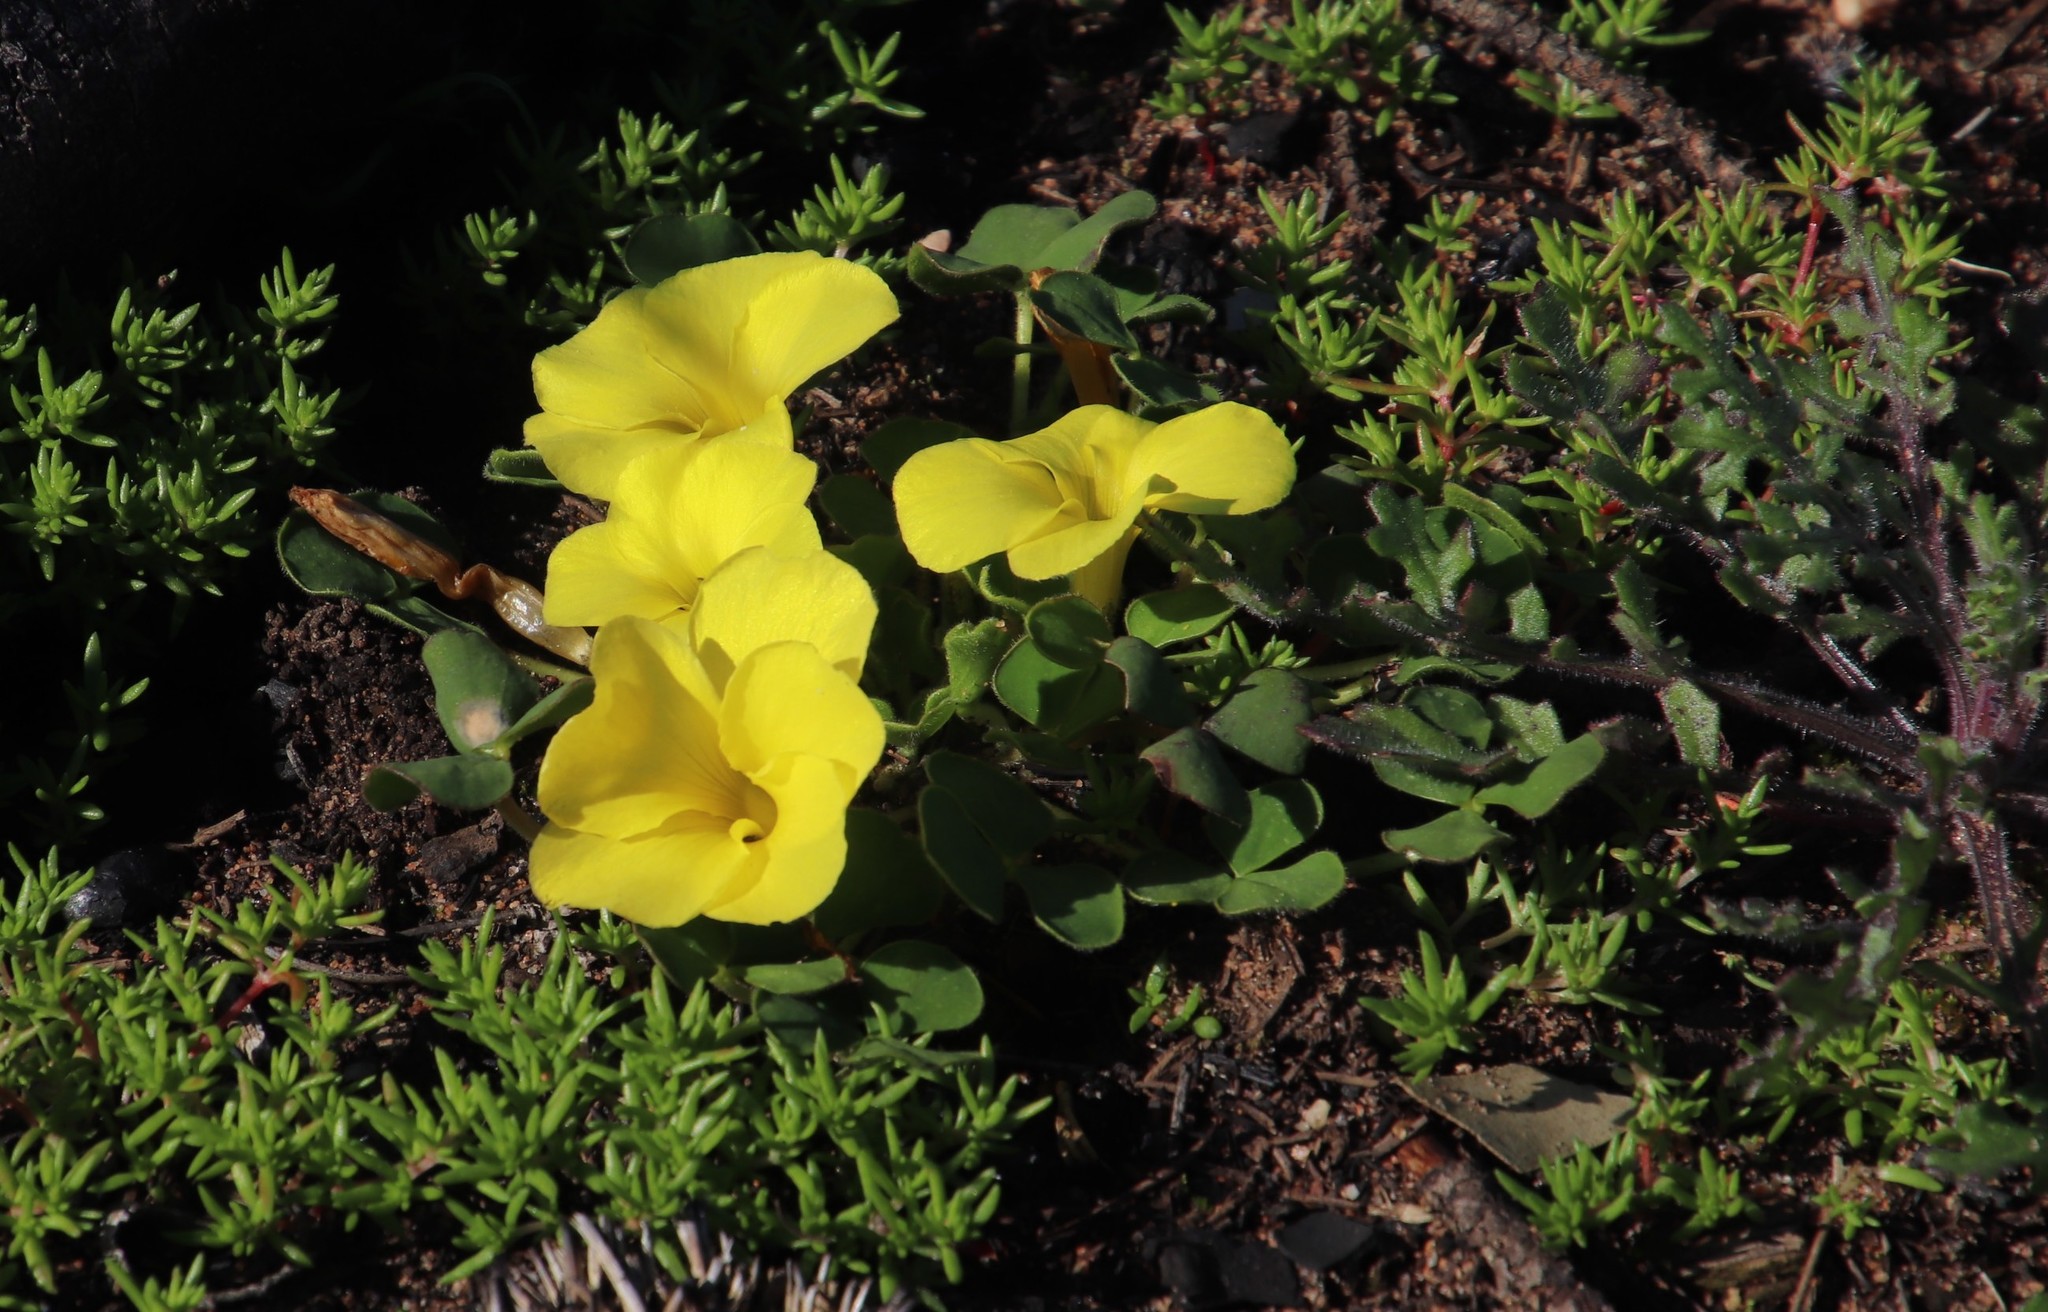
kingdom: Plantae
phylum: Tracheophyta
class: Magnoliopsida
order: Oxalidales
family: Oxalidaceae
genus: Oxalis
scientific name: Oxalis luteola
